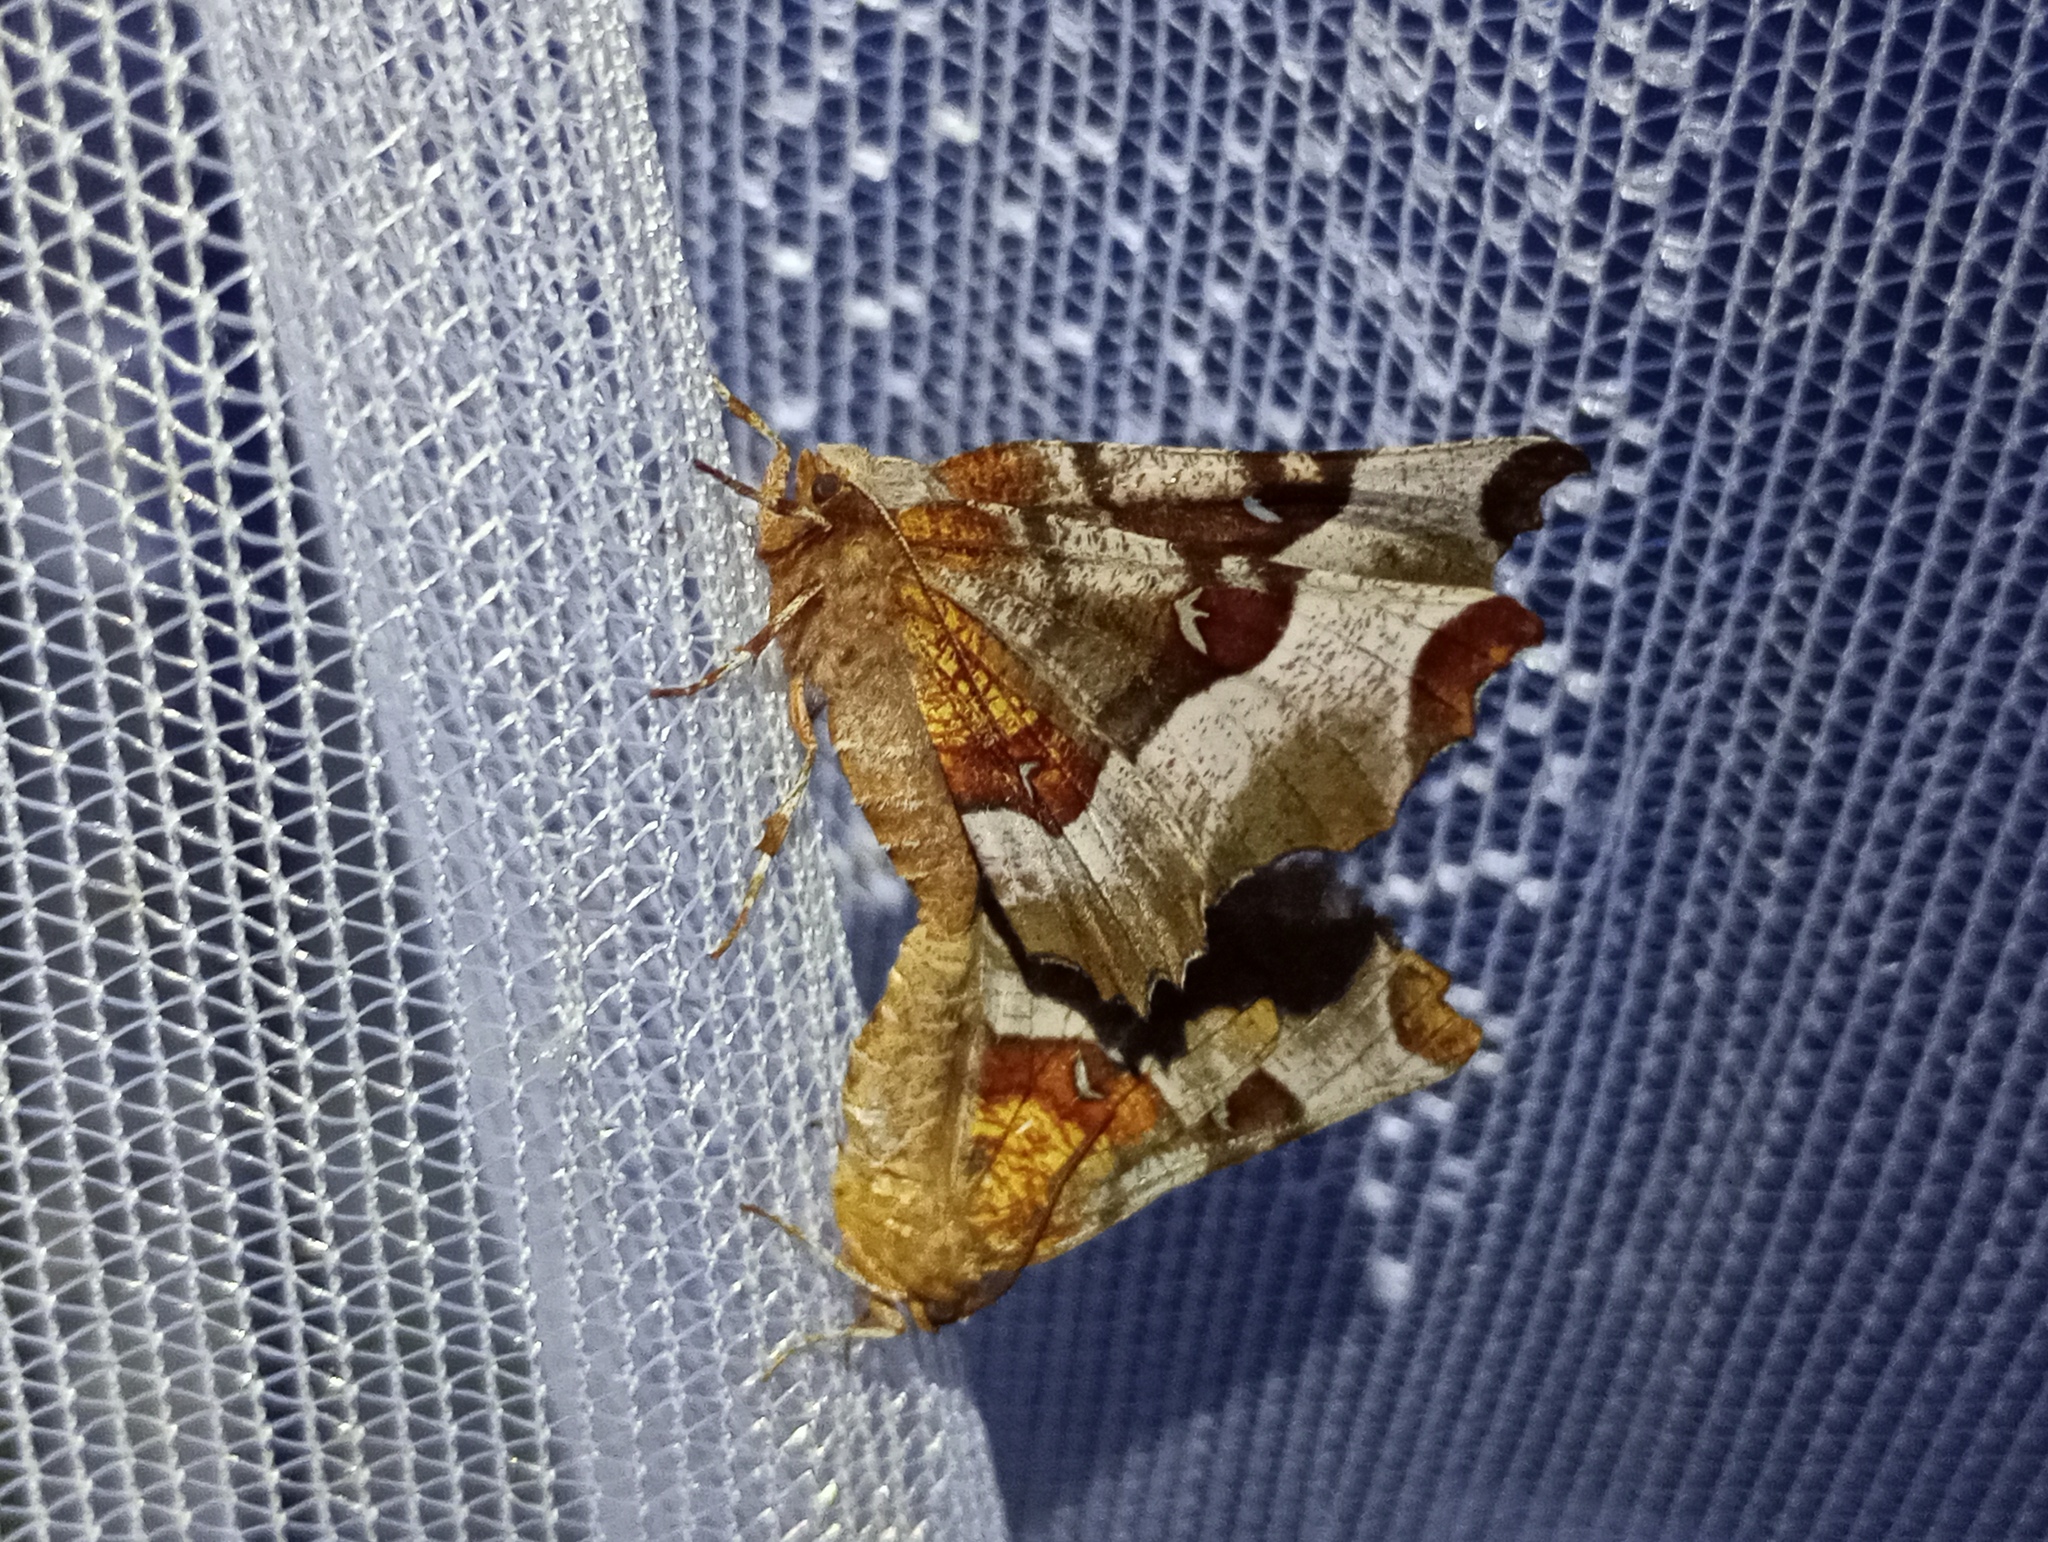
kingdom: Animalia
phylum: Arthropoda
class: Insecta
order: Lepidoptera
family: Geometridae
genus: Selenia
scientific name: Selenia tetralunaria
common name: Purple thorn
